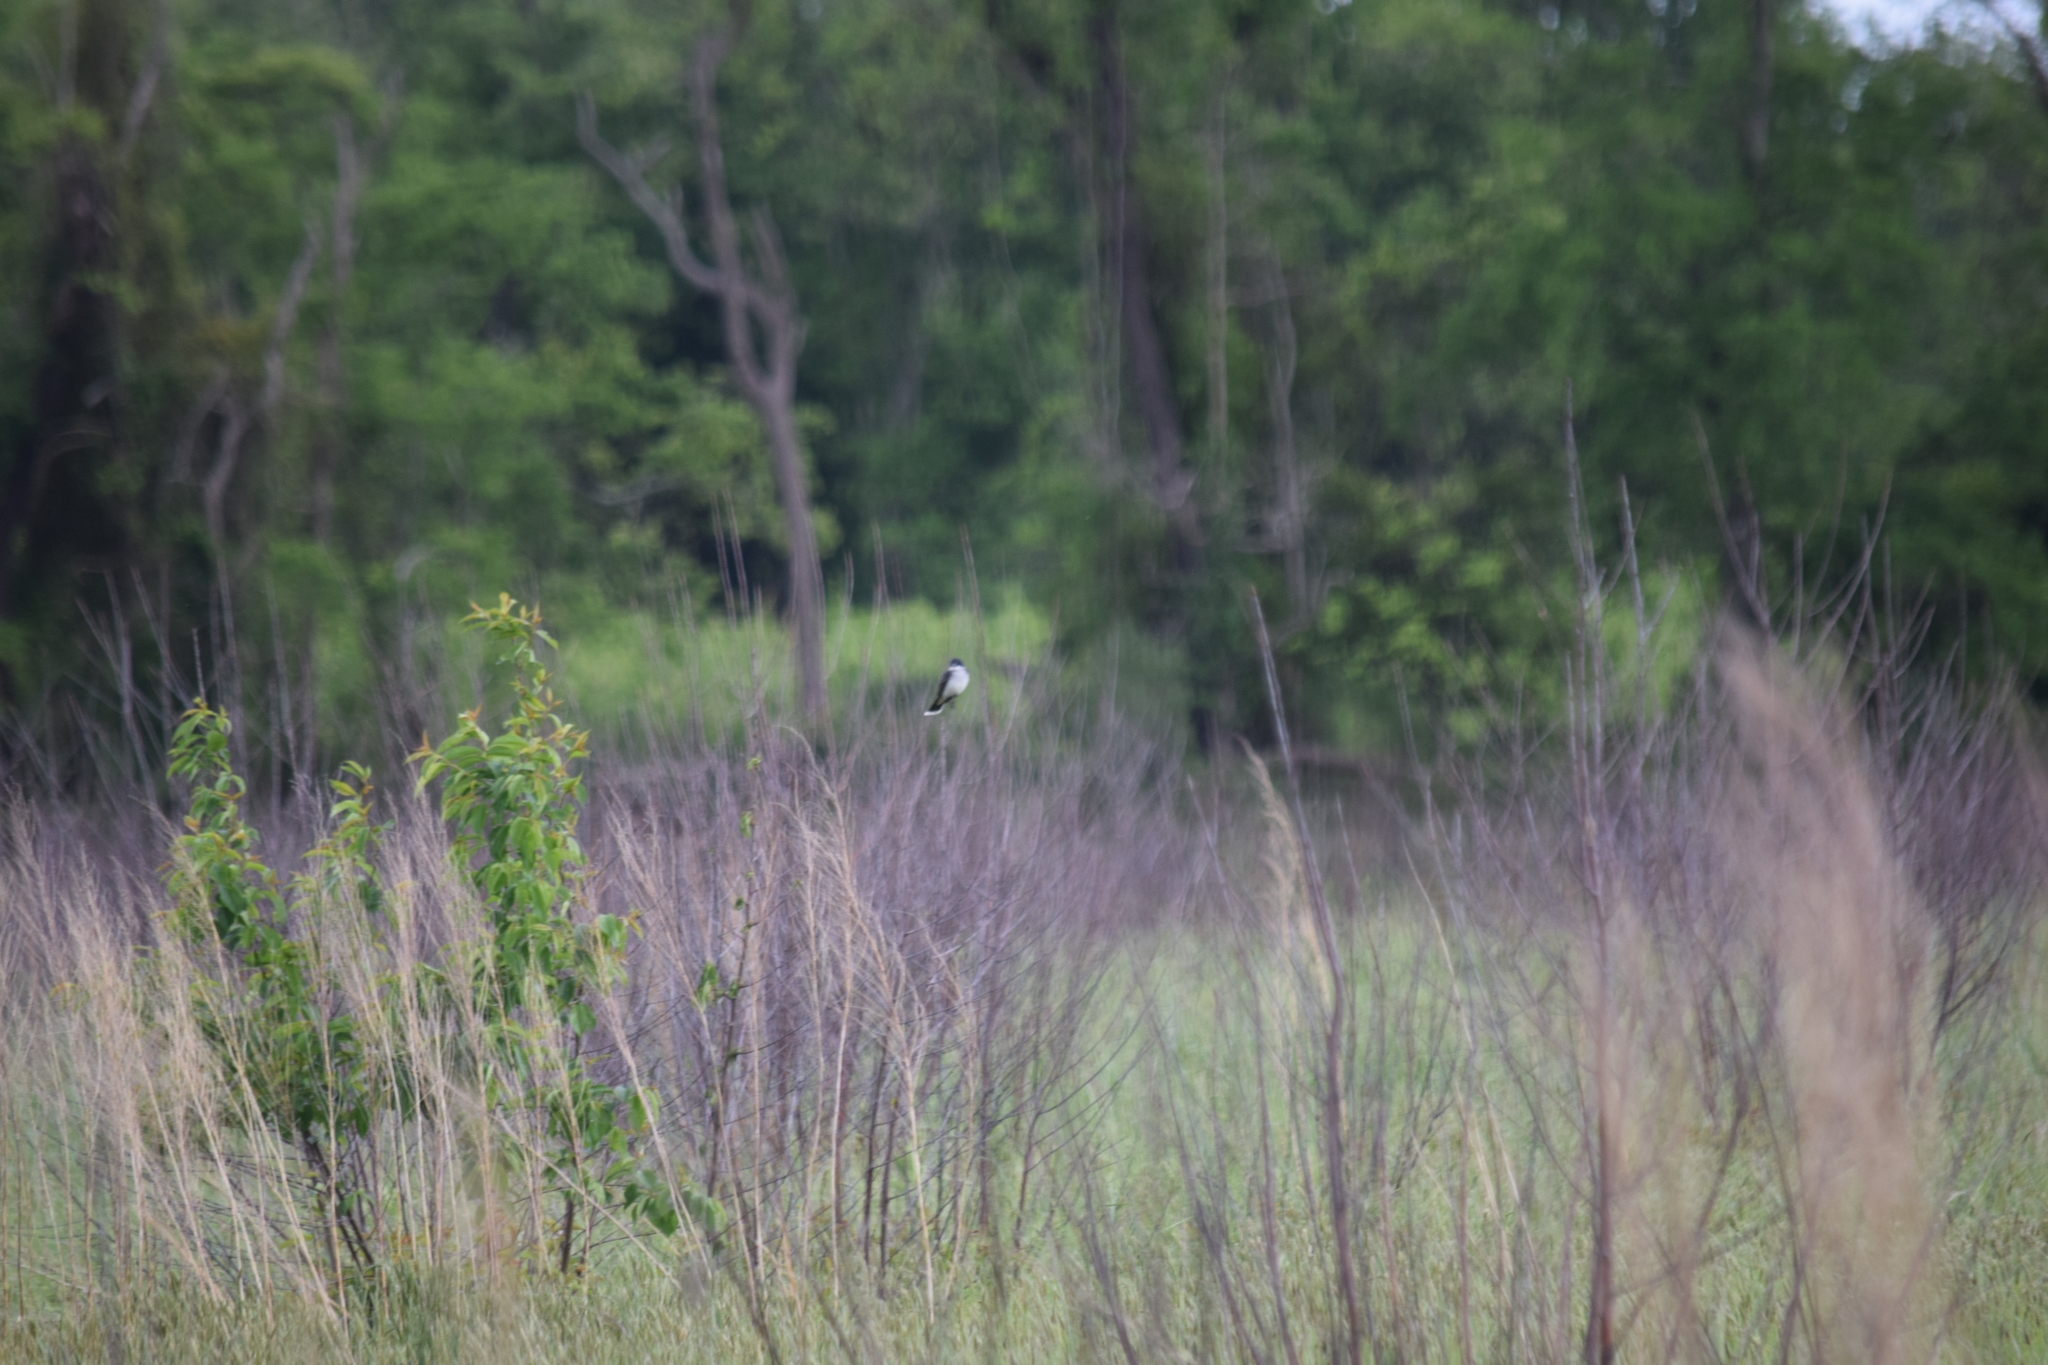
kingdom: Animalia
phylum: Chordata
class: Aves
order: Passeriformes
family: Tyrannidae
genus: Tyrannus
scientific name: Tyrannus tyrannus
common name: Eastern kingbird
